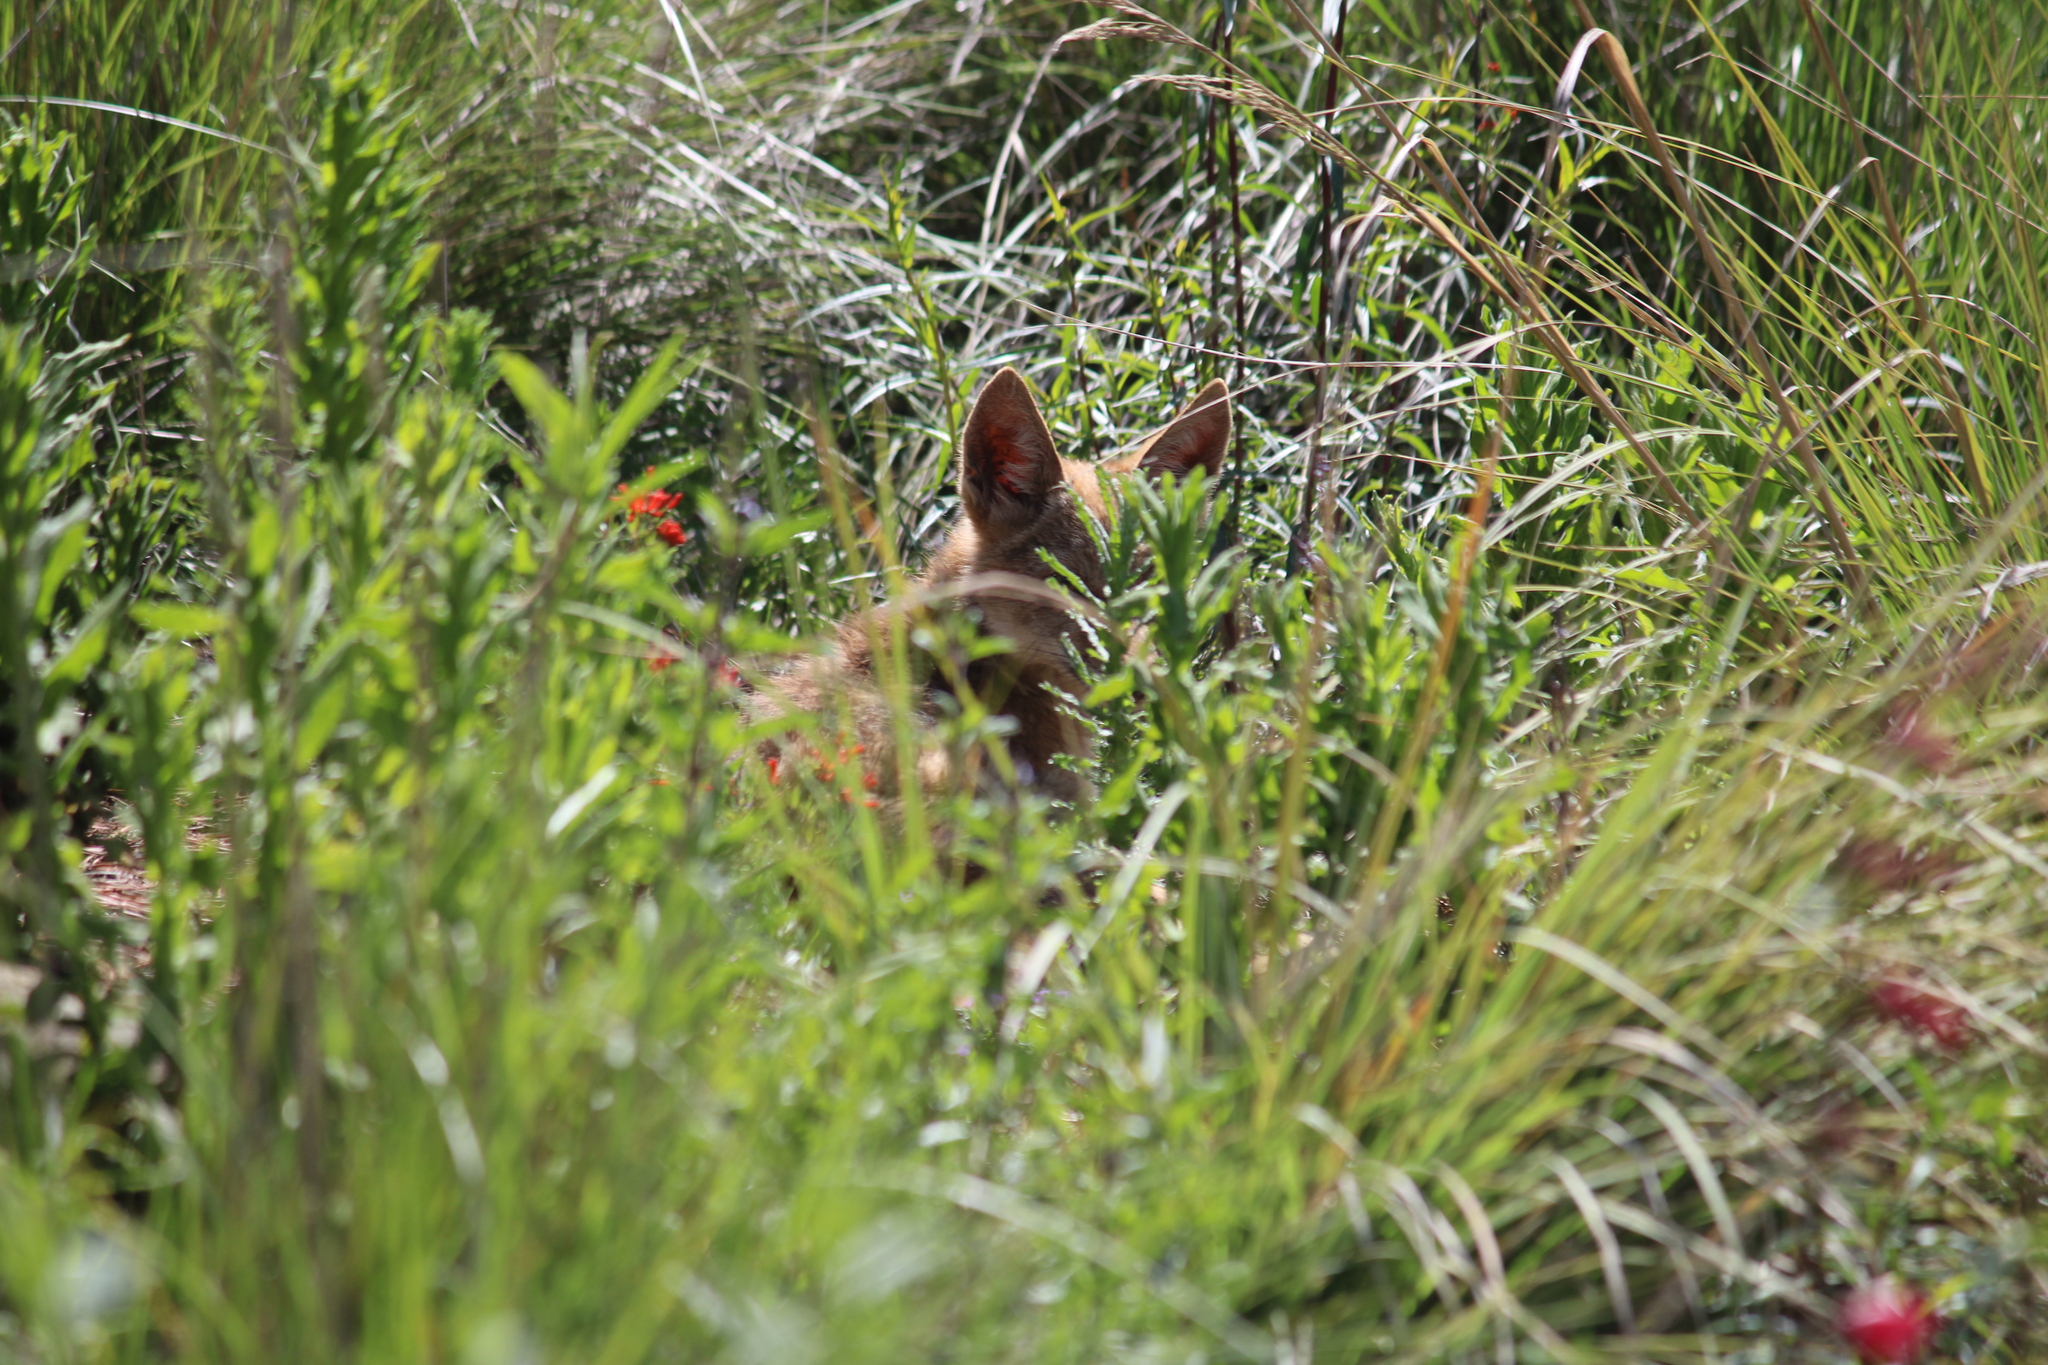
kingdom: Animalia
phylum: Chordata
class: Mammalia
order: Carnivora
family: Canidae
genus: Canis
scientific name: Canis latrans
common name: Coyote
